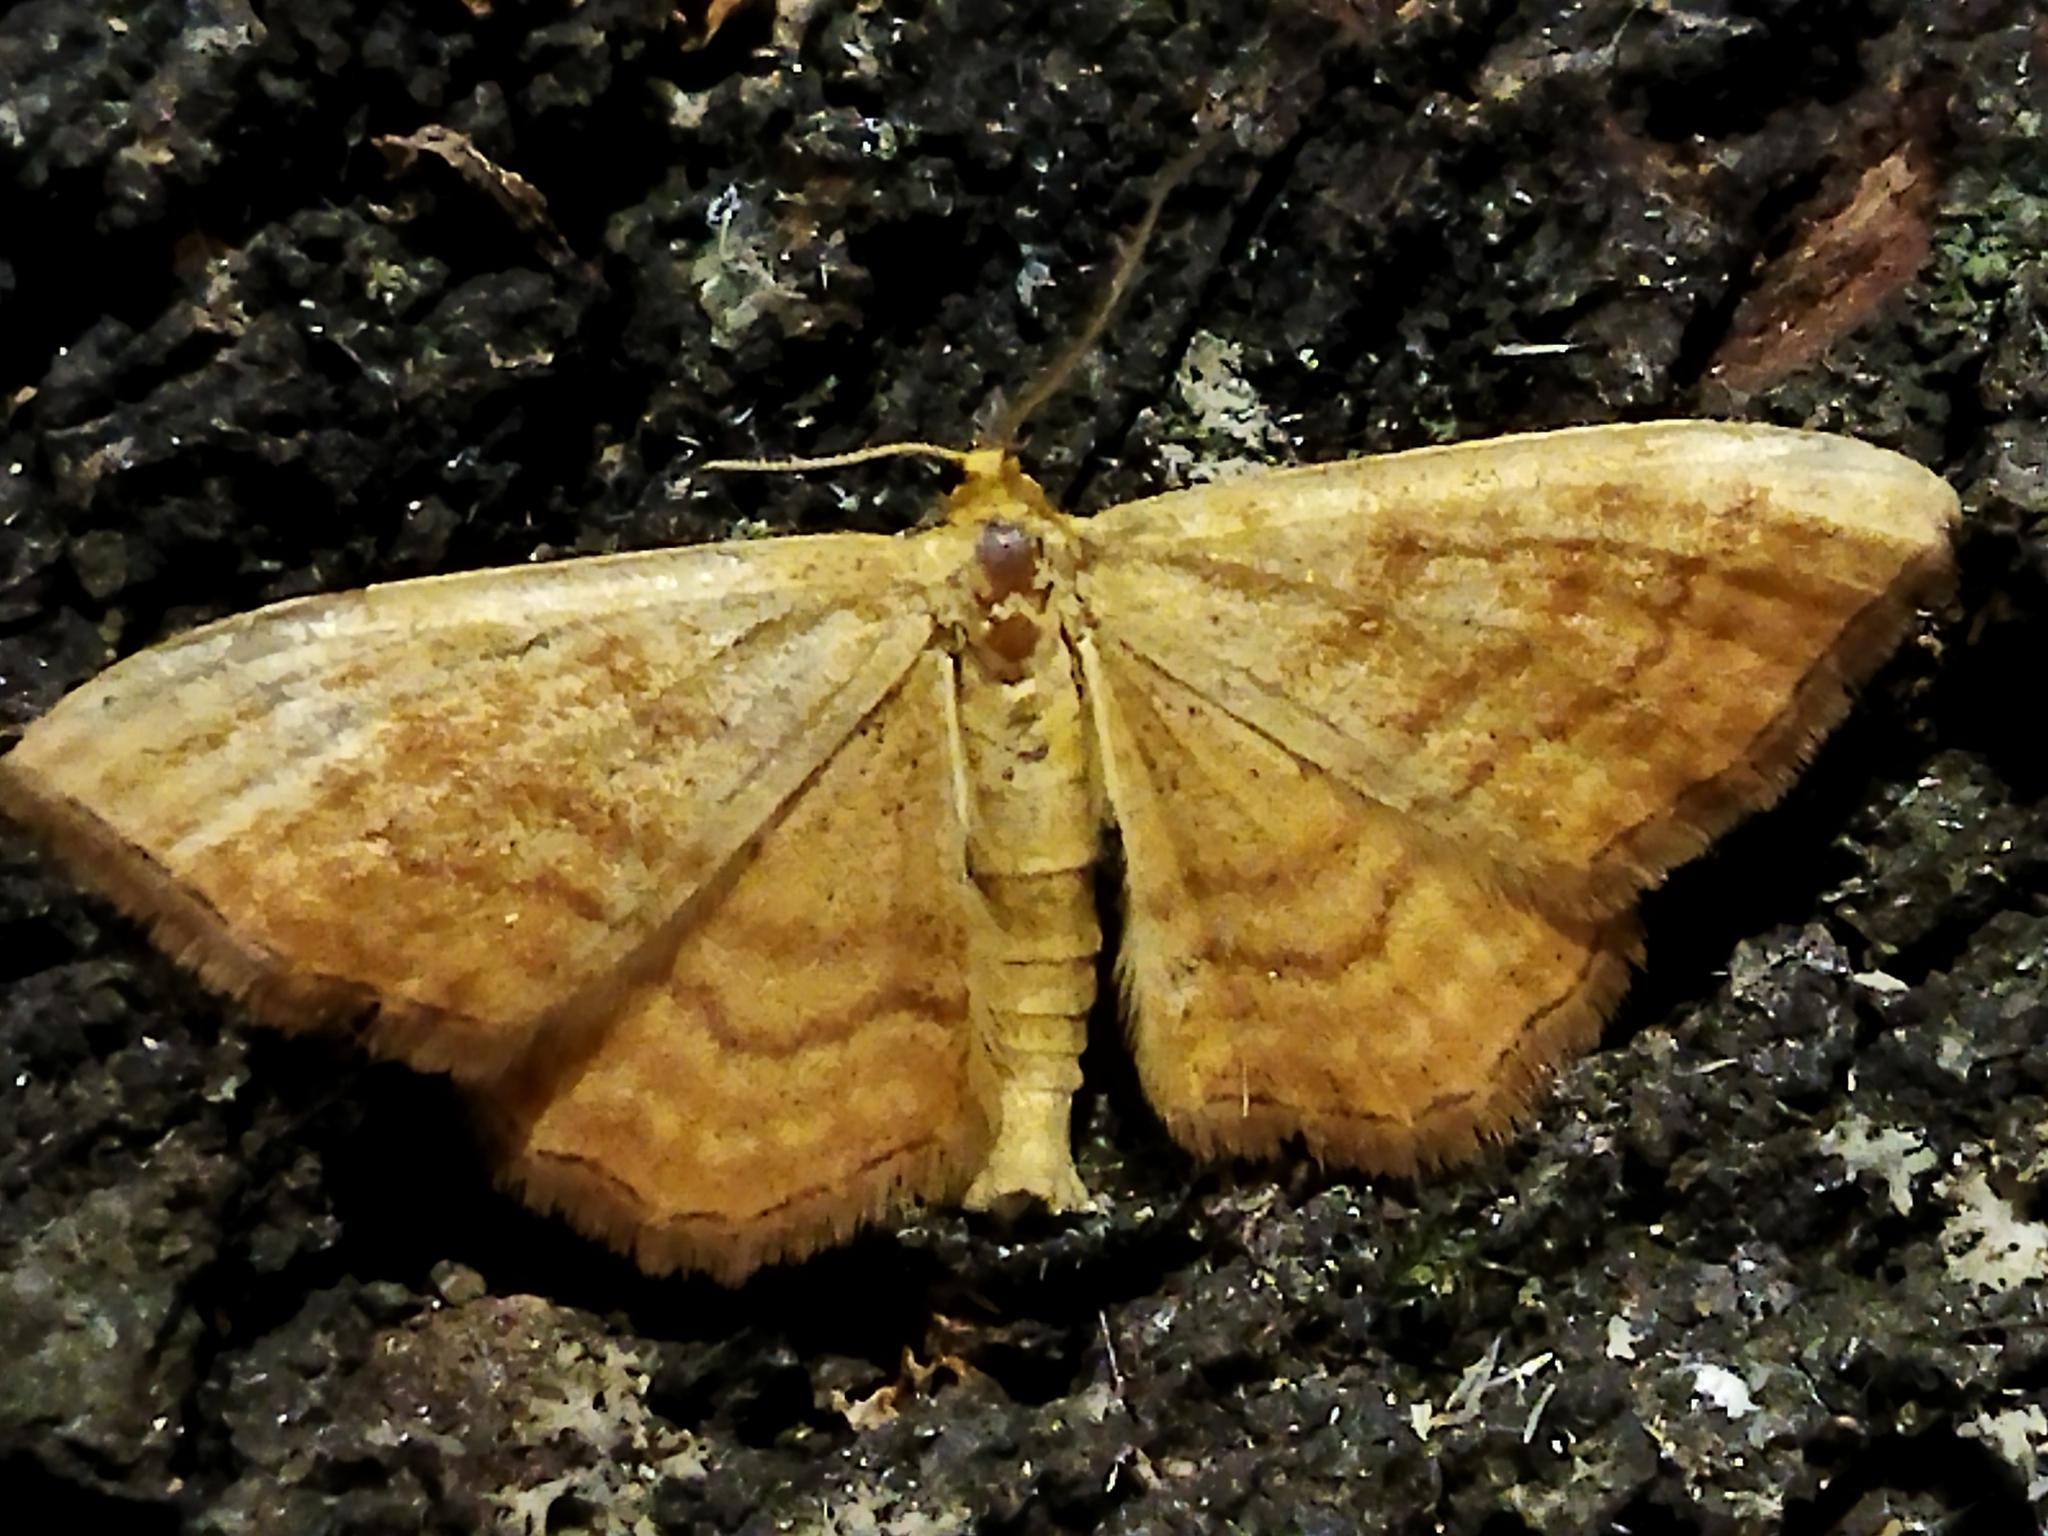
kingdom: Animalia
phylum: Arthropoda
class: Insecta
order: Lepidoptera
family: Geometridae
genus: Idaea
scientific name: Idaea ochrata
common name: Bright wave
